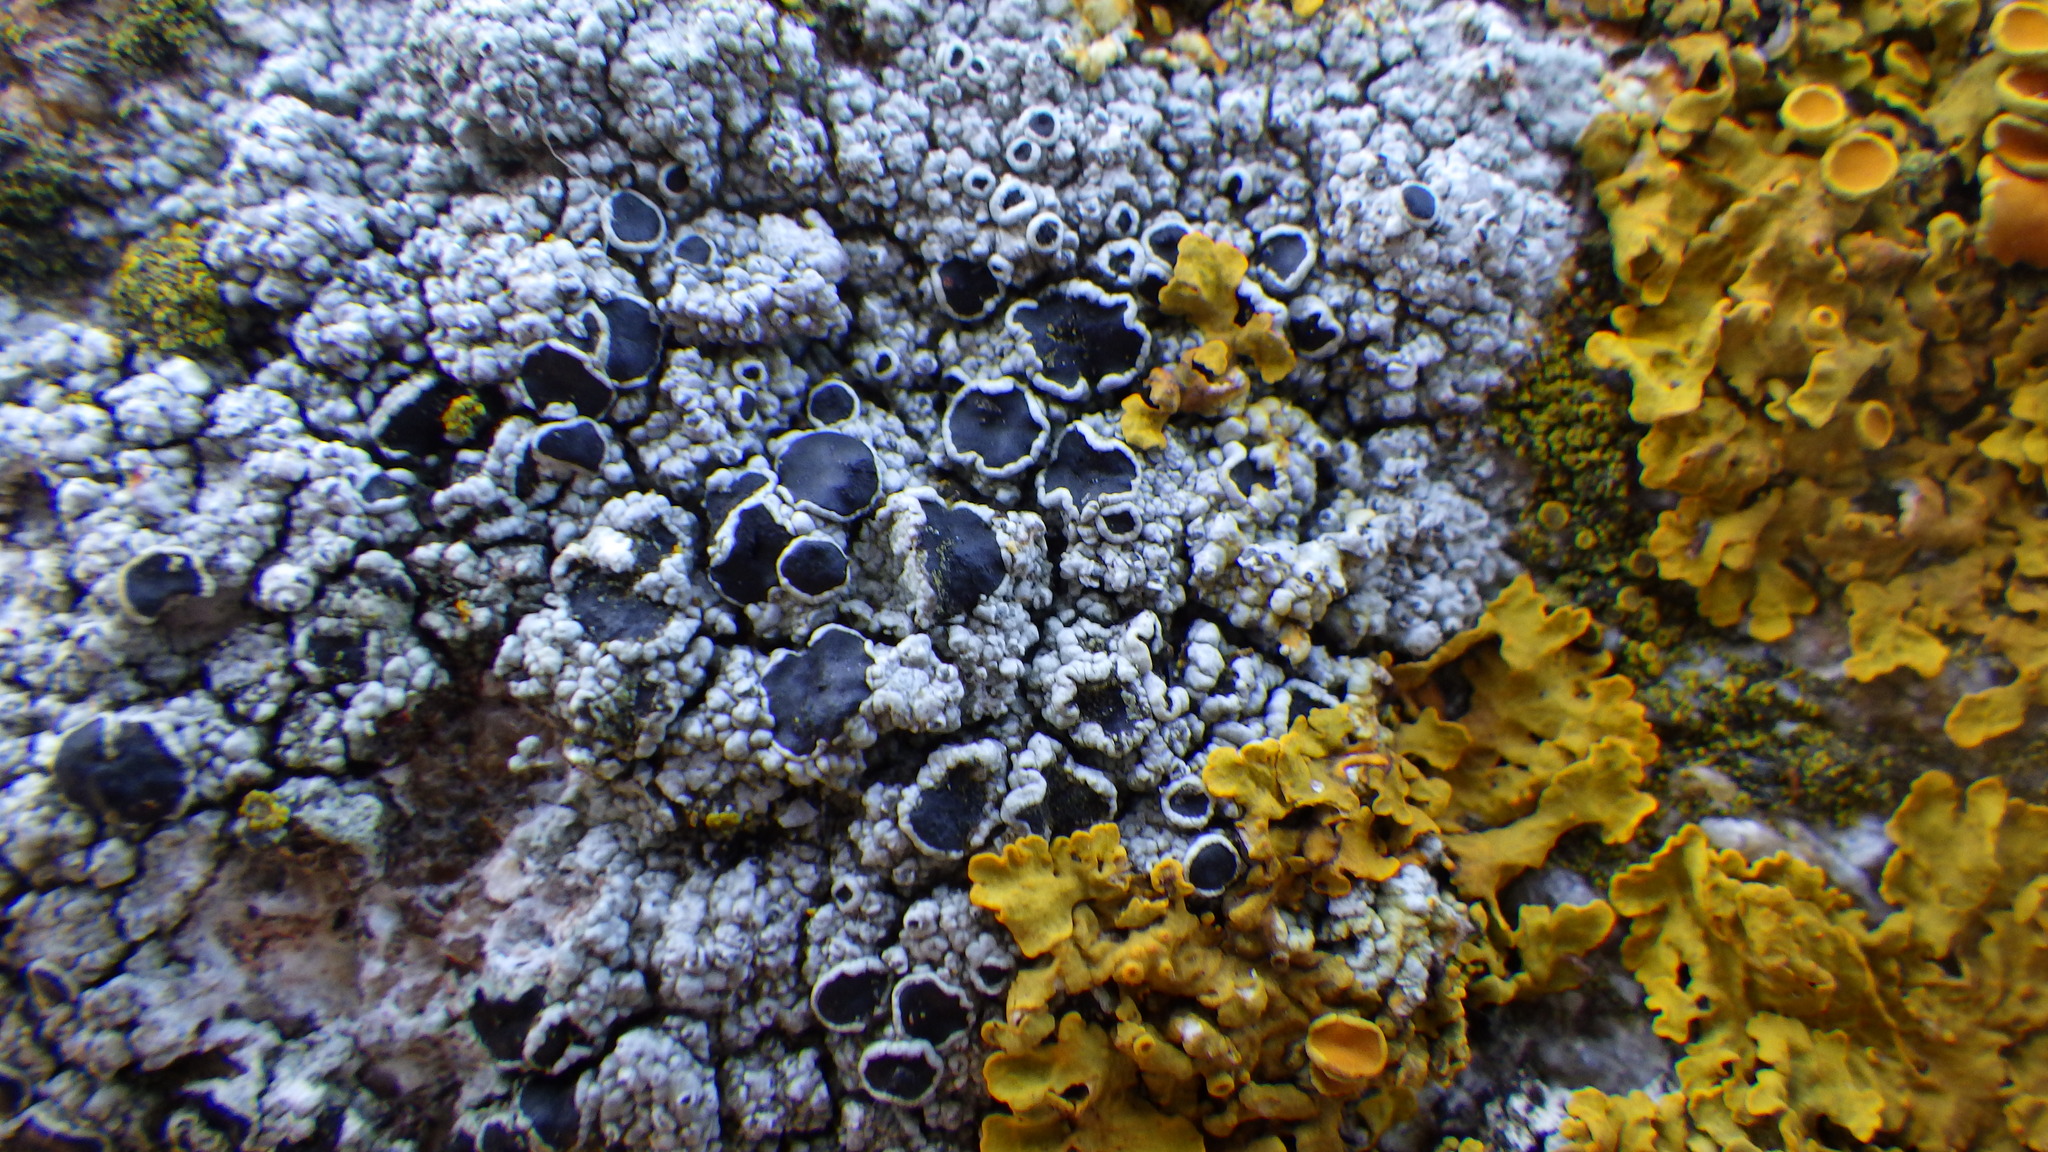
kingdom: Fungi
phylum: Ascomycota
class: Lecanoromycetes
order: Lecanorales
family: Tephromelataceae
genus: Tephromela
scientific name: Tephromela atra
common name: Black shields
